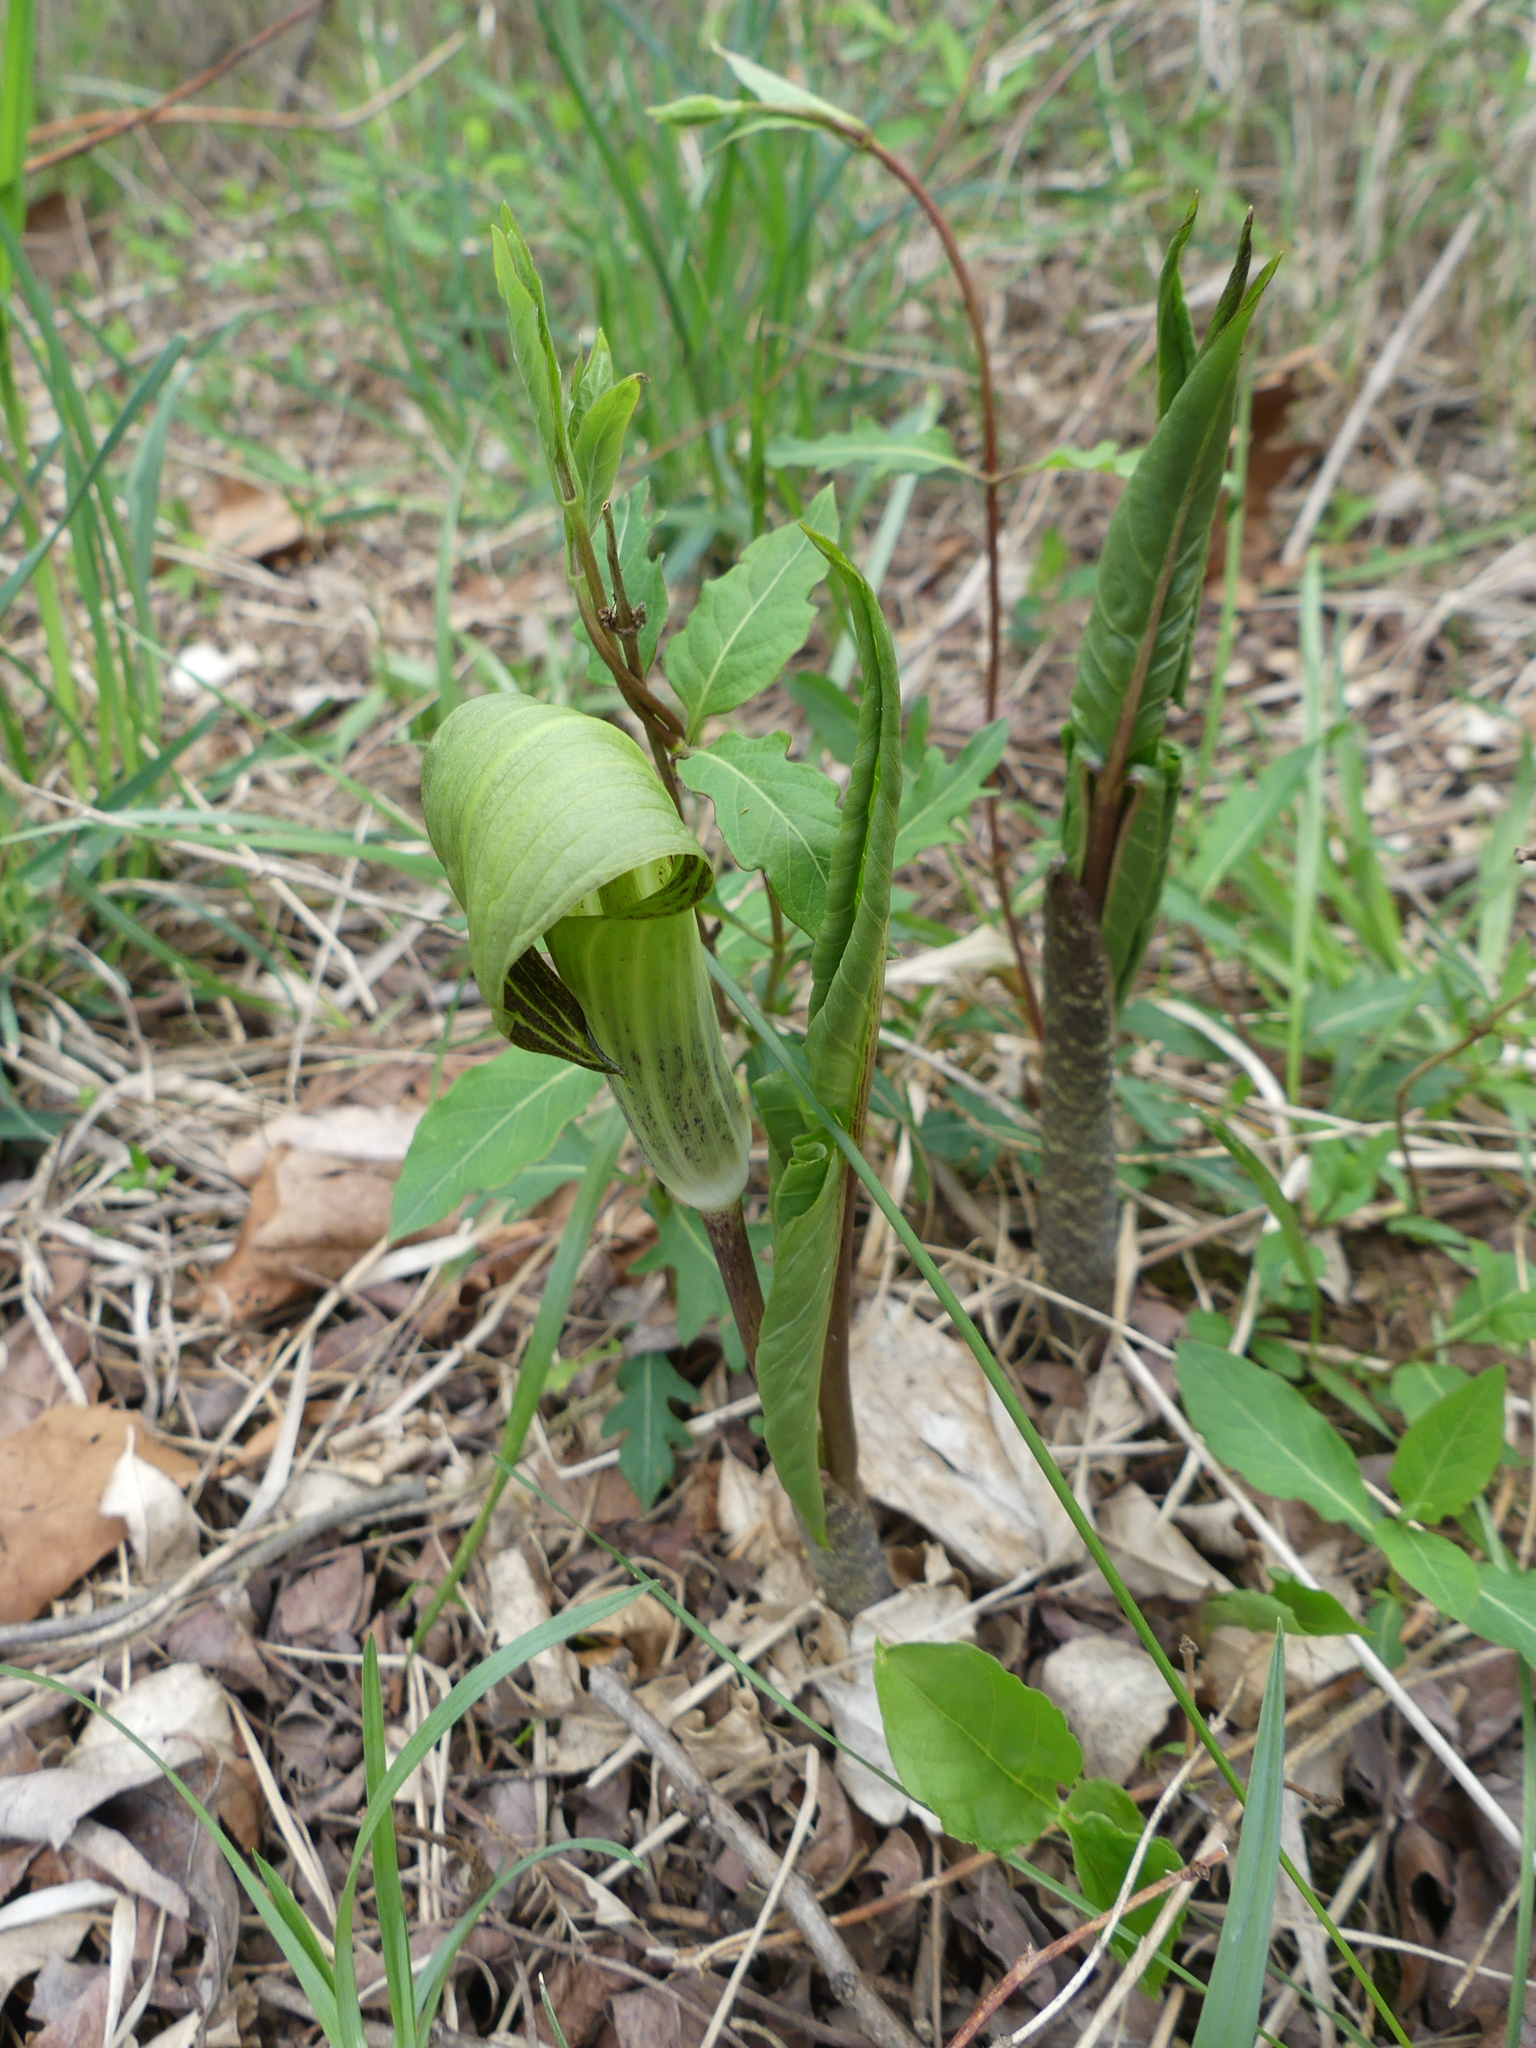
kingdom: Plantae
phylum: Tracheophyta
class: Liliopsida
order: Alismatales
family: Araceae
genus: Arisaema
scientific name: Arisaema triphyllum
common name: Jack-in-the-pulpit
